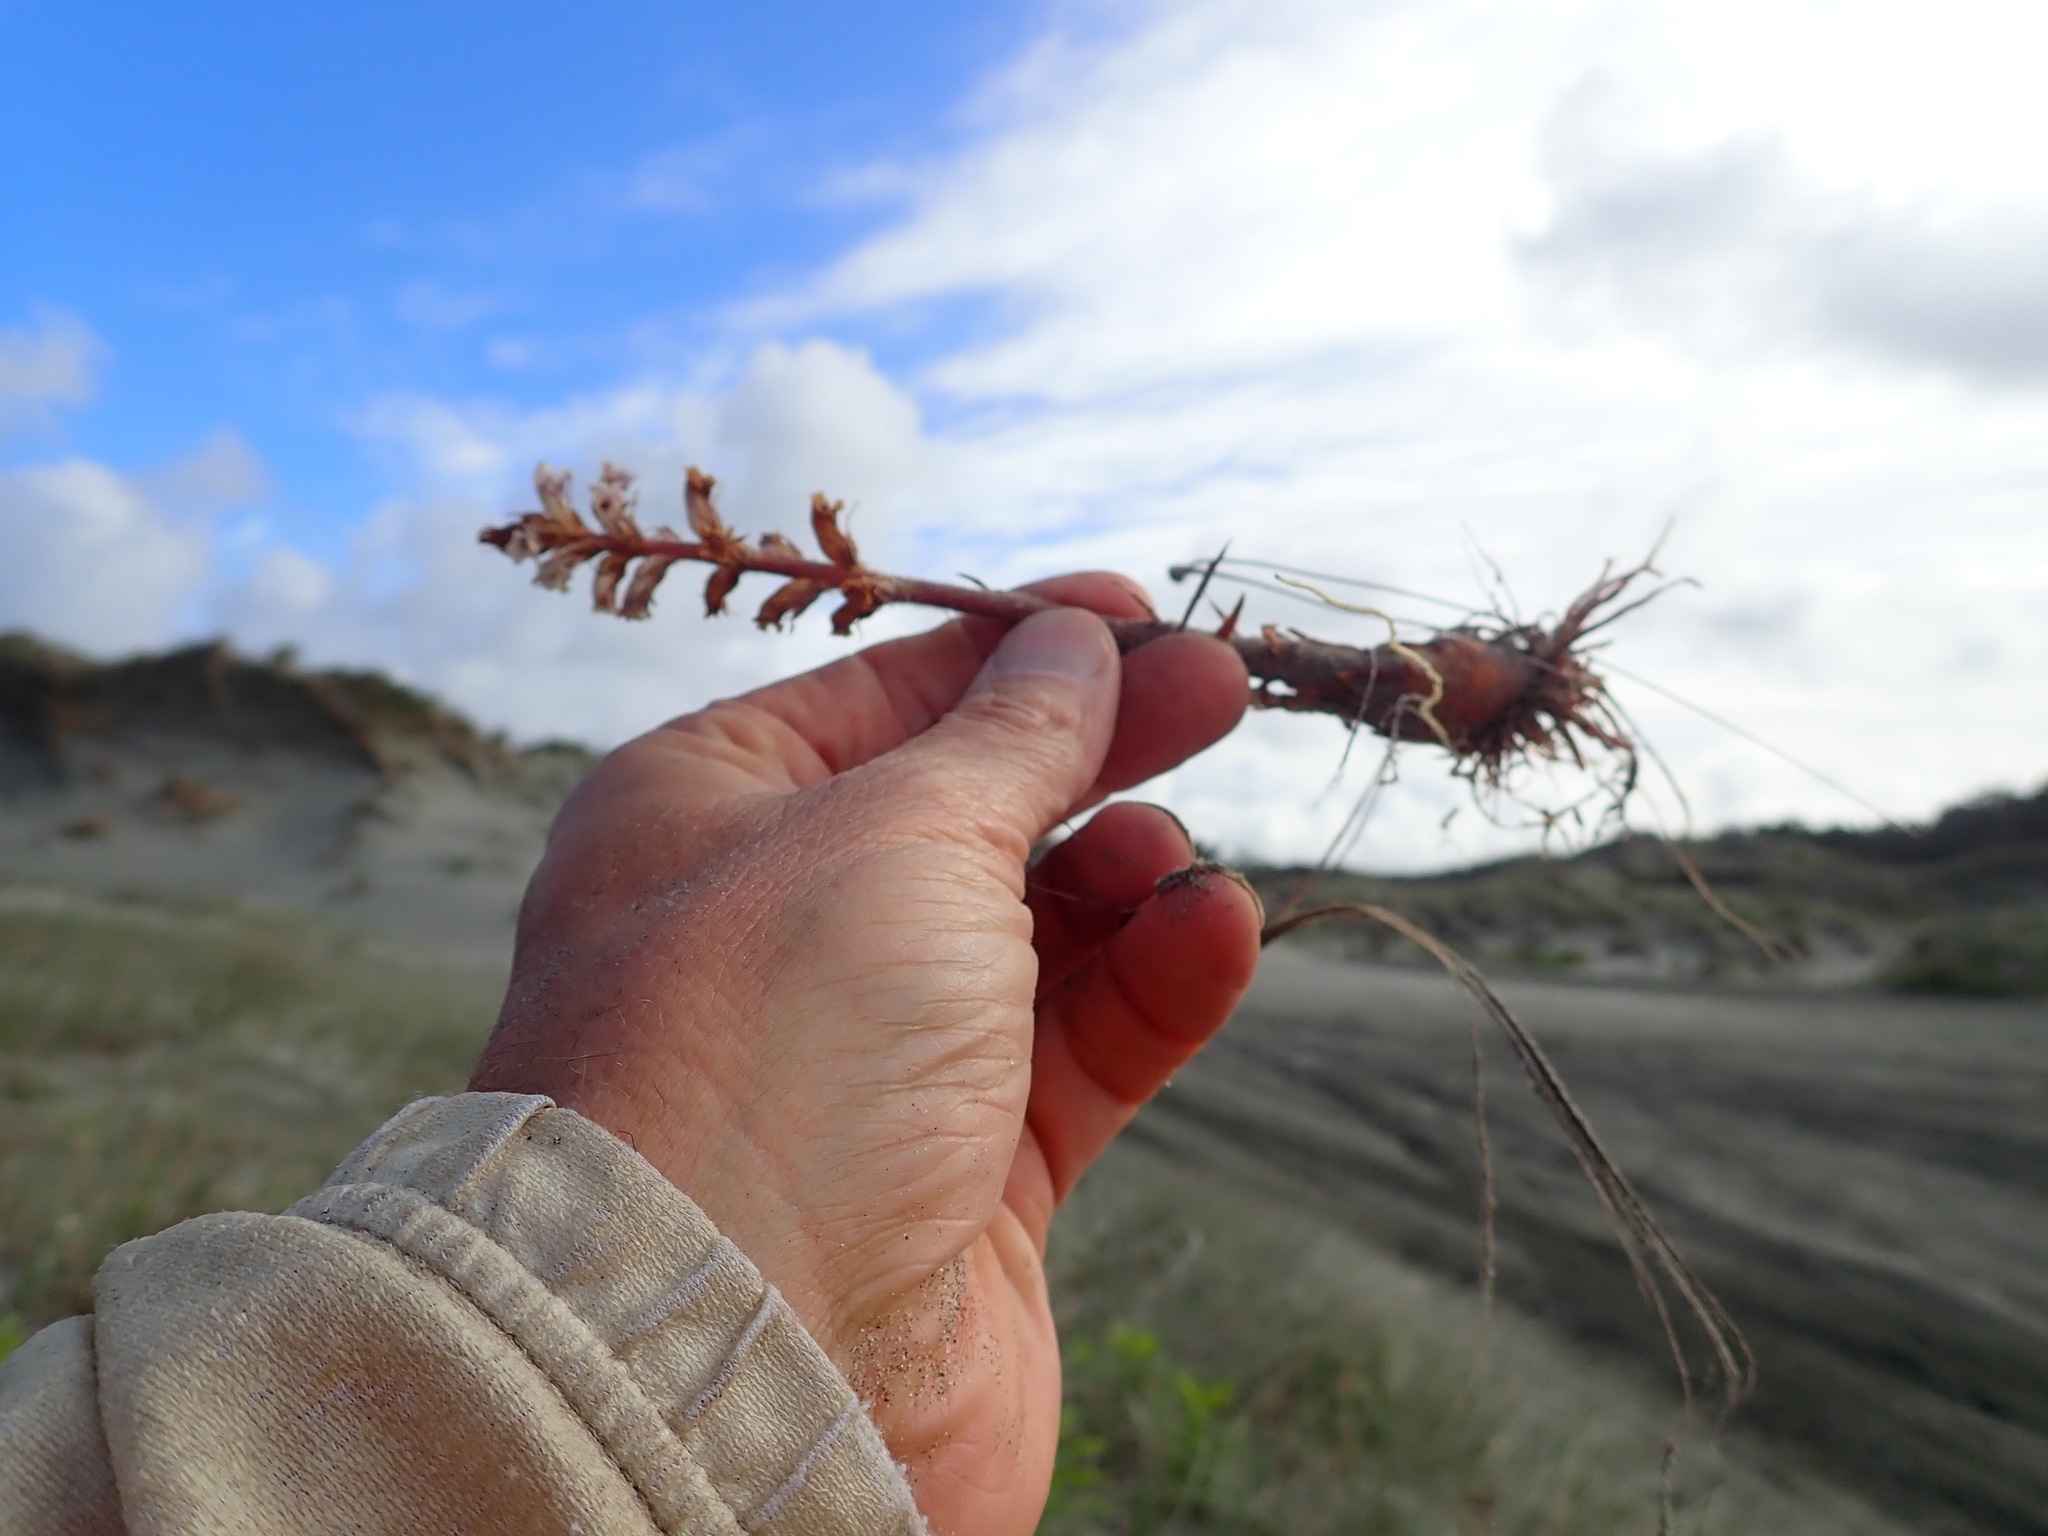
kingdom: Plantae
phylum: Tracheophyta
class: Magnoliopsida
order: Lamiales
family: Orobanchaceae
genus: Orobanche
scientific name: Orobanche minor
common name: Common broomrape
